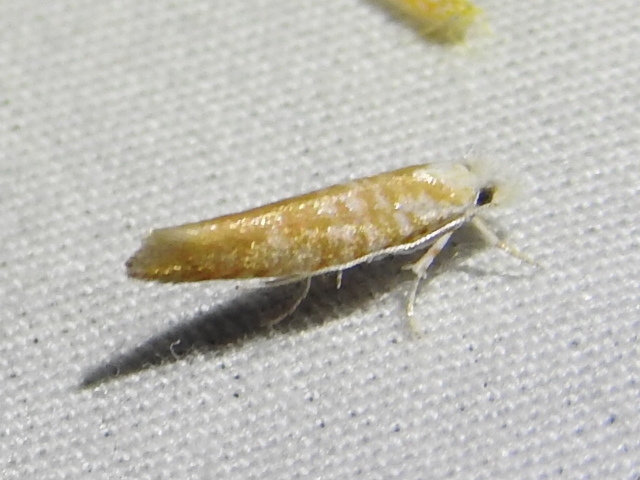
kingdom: Animalia
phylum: Arthropoda
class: Insecta
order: Lepidoptera
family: Yponomeutidae
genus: Zelleria
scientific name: Zelleria retiniella
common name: Brindled zelleria
